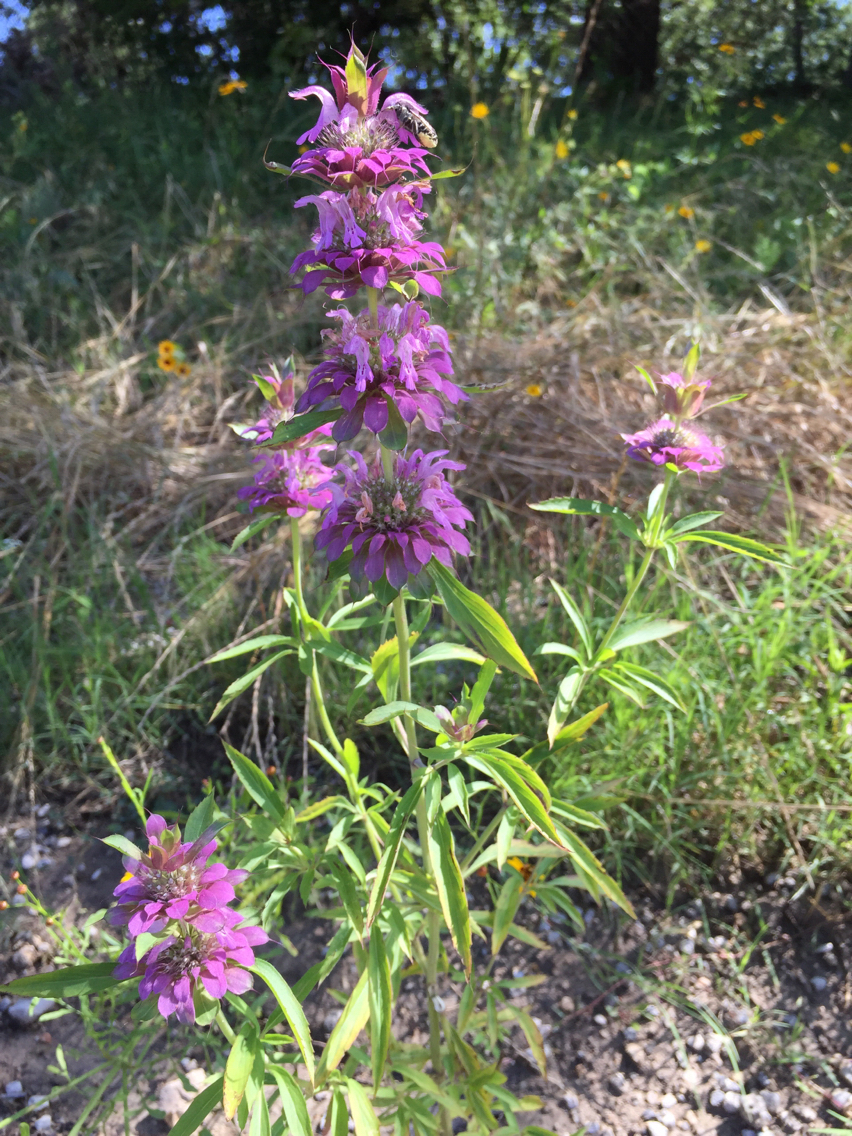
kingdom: Plantae
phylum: Tracheophyta
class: Magnoliopsida
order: Lamiales
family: Lamiaceae
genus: Monarda
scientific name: Monarda citriodora
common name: Lemon beebalm
